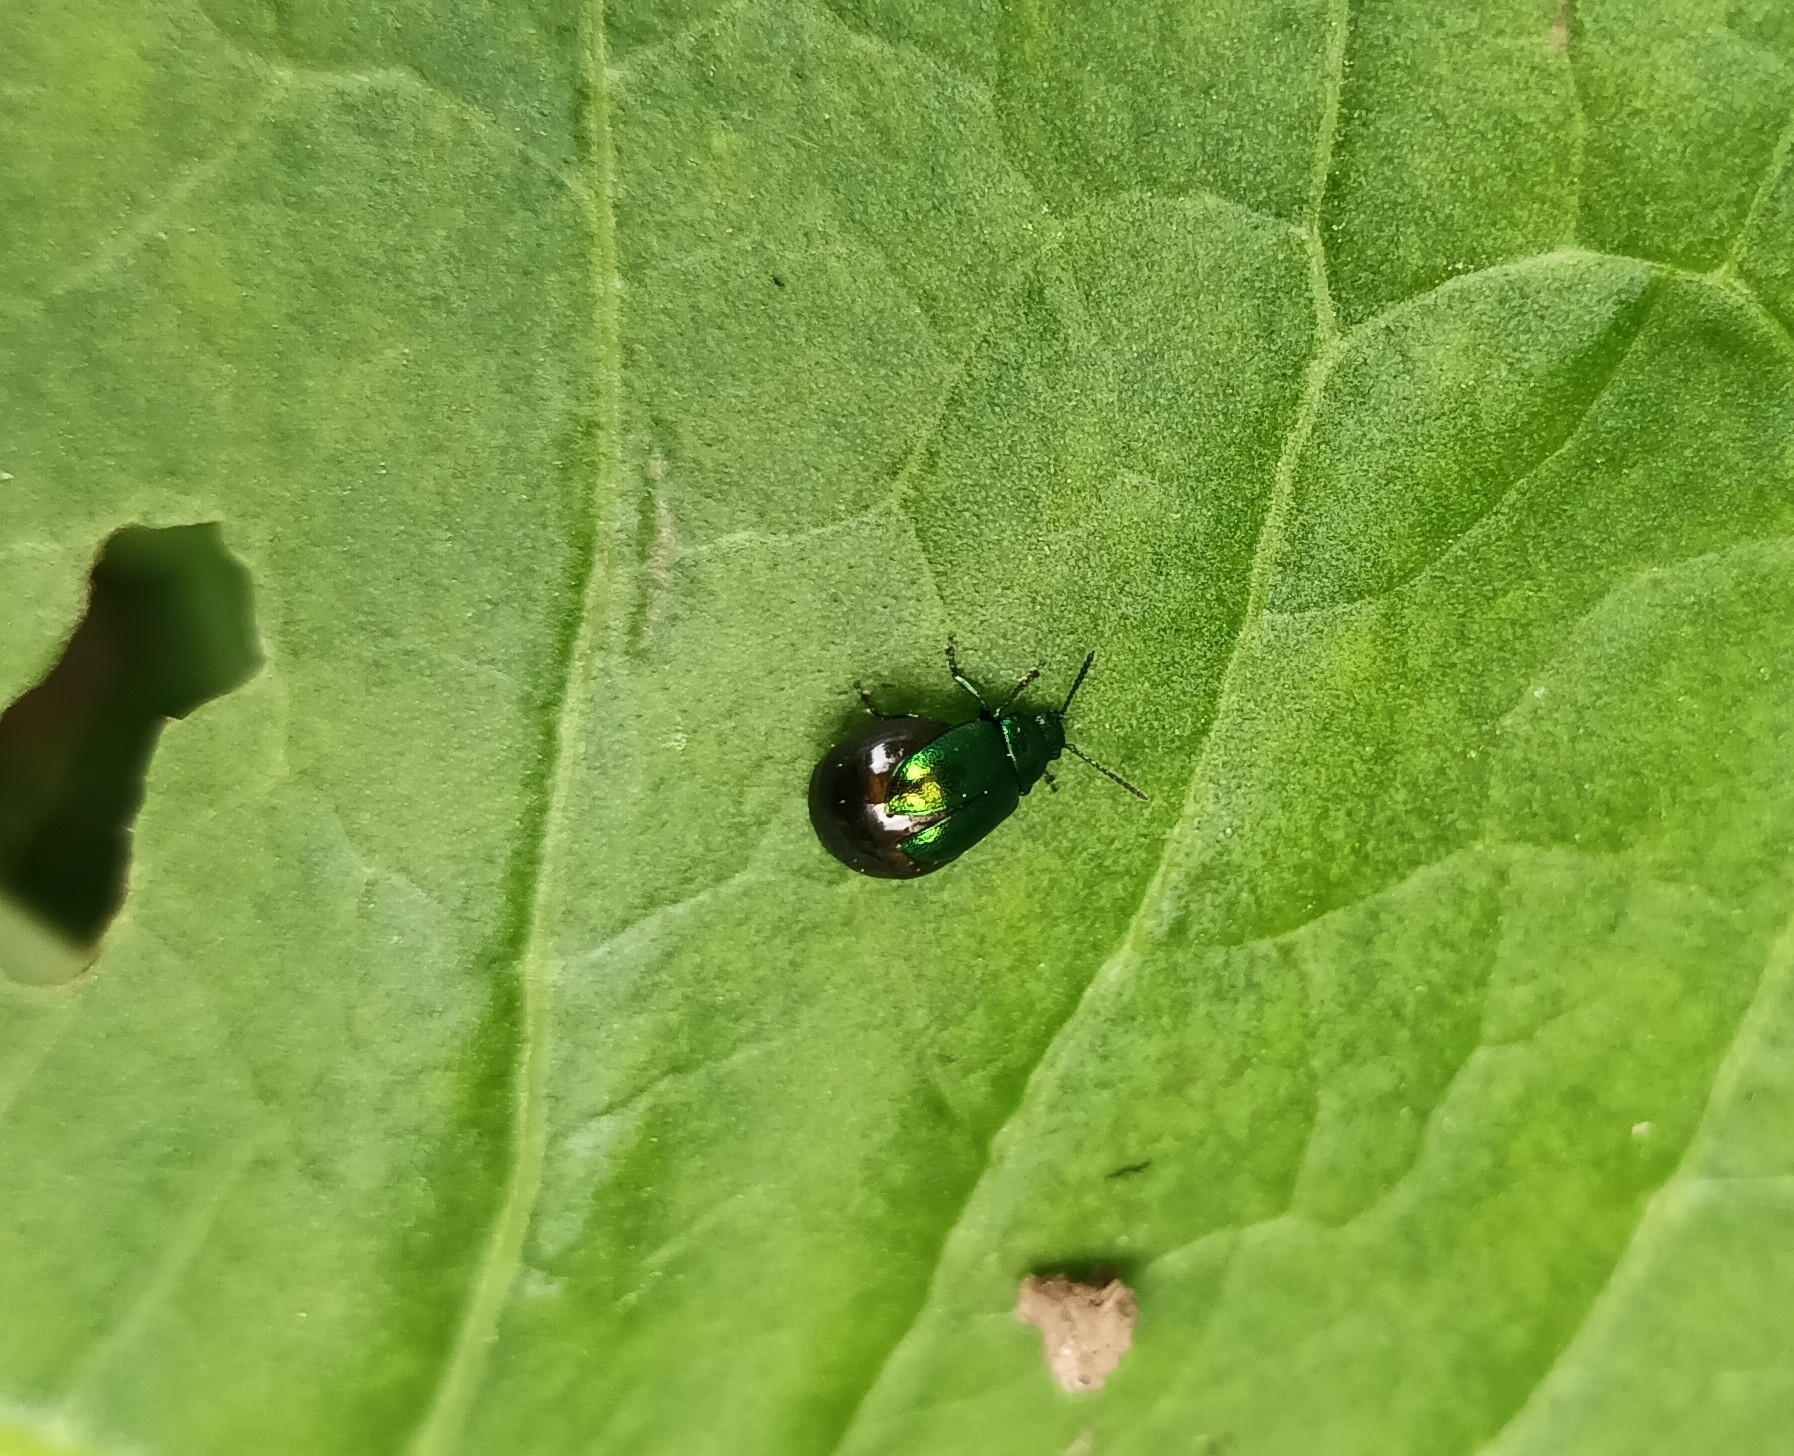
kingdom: Animalia
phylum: Arthropoda
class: Insecta
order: Coleoptera
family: Chrysomelidae
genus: Gastrophysa
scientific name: Gastrophysa viridula
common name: Green dock beetle
